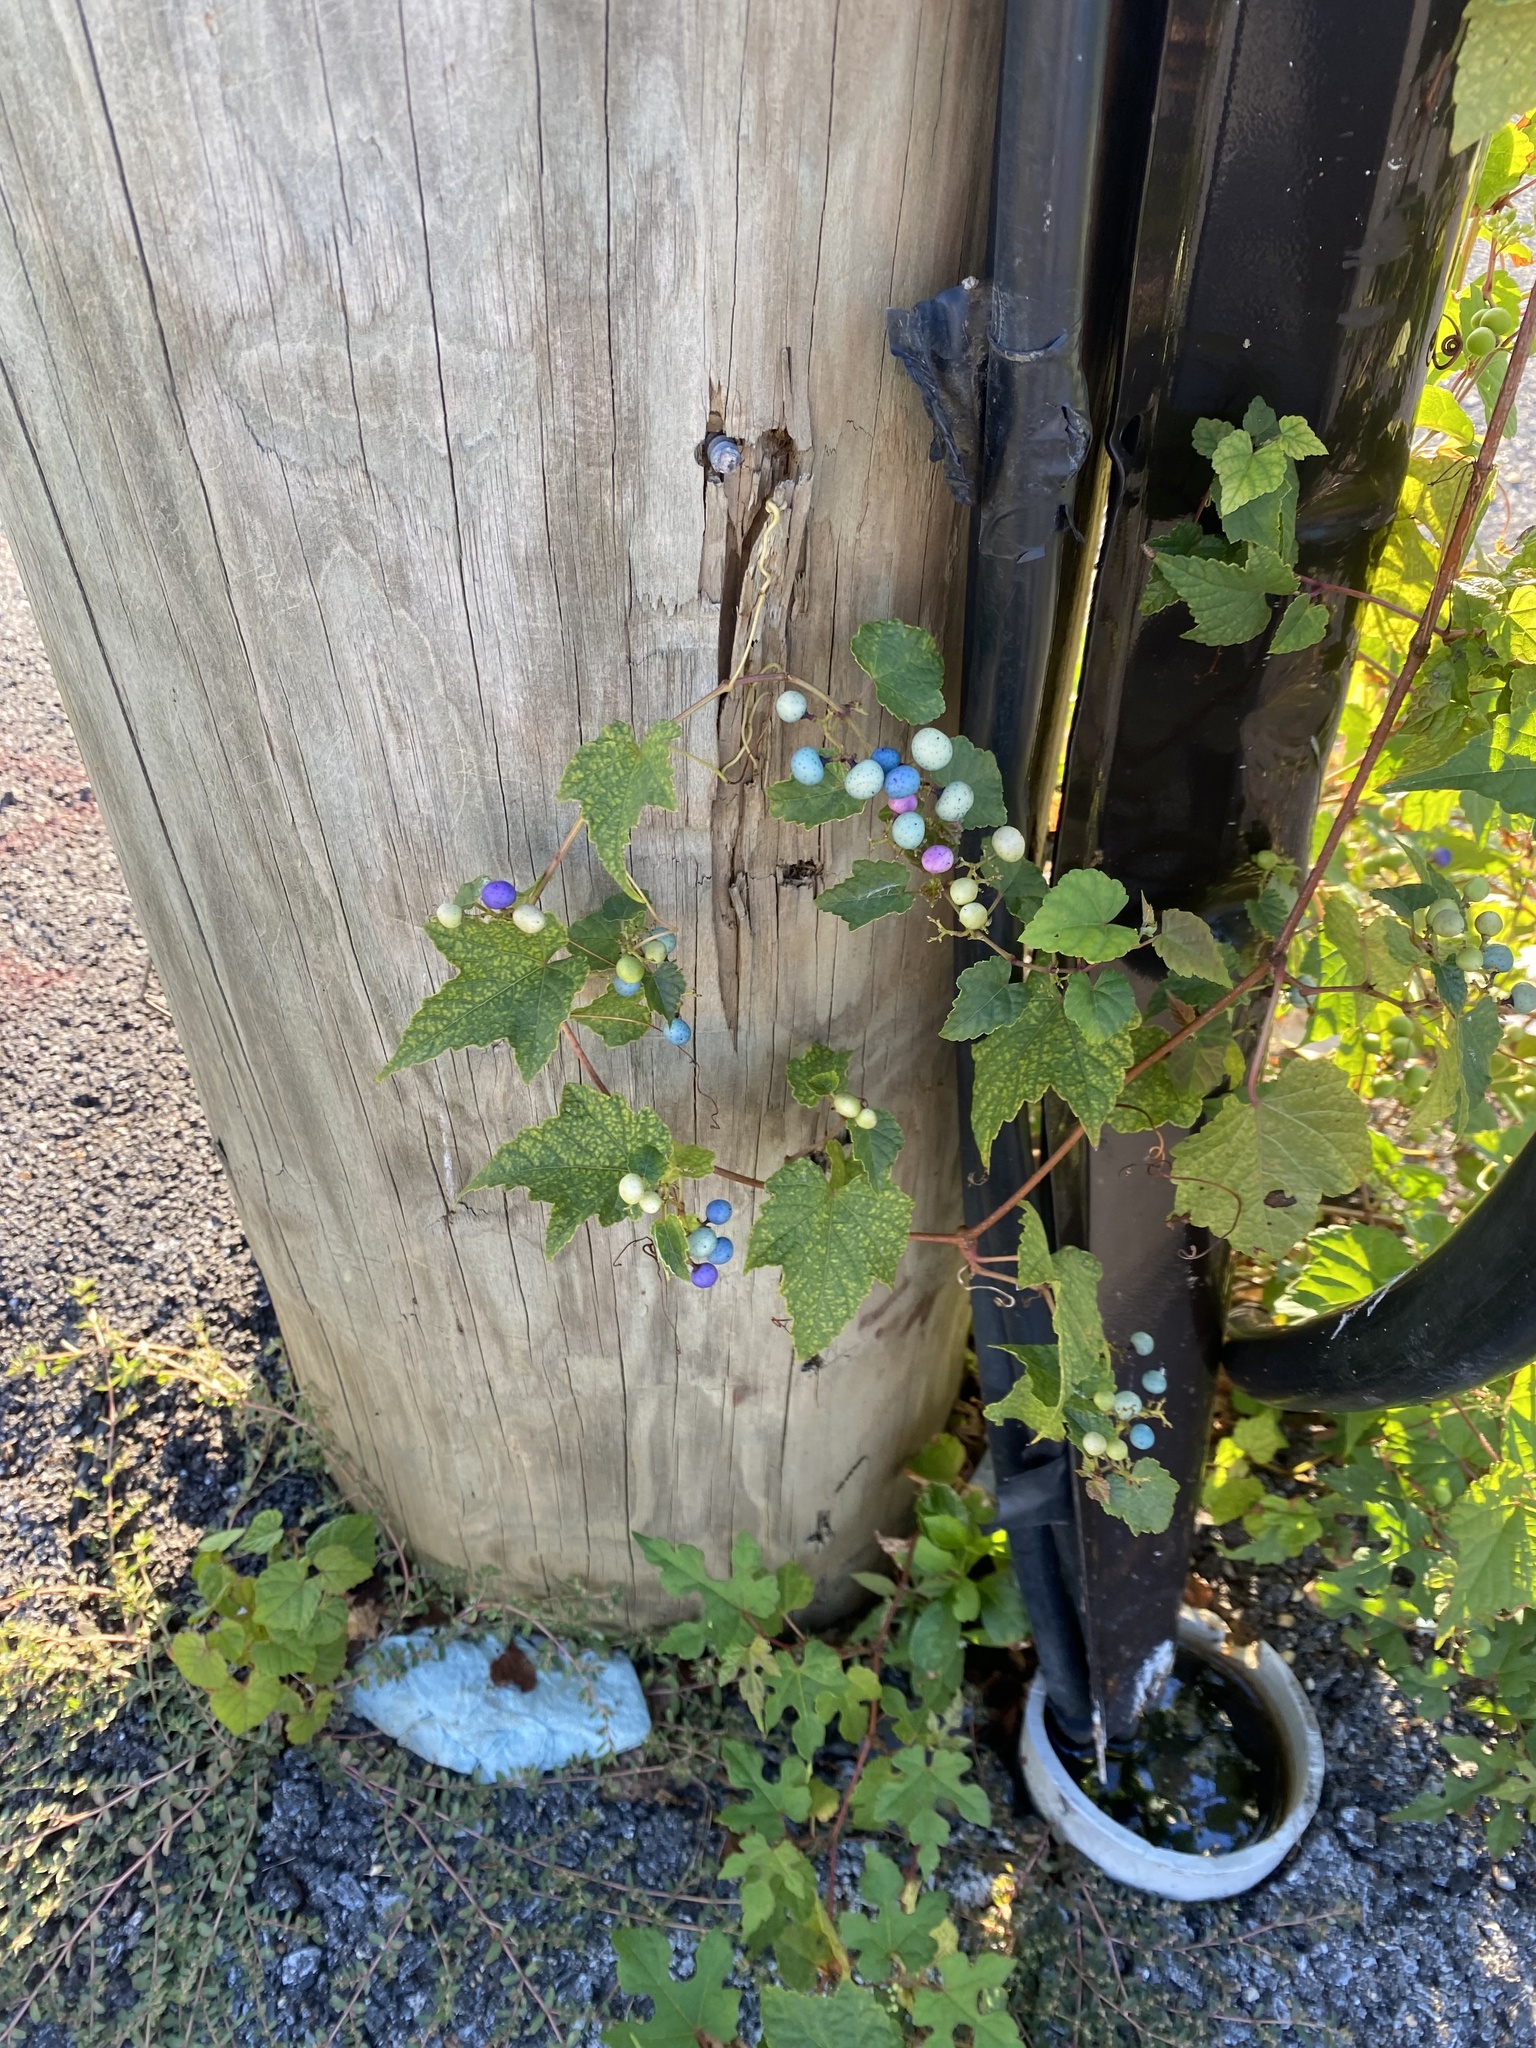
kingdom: Plantae
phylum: Tracheophyta
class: Magnoliopsida
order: Vitales
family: Vitaceae
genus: Ampelopsis
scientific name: Ampelopsis glandulosa
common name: Amur peppervine
